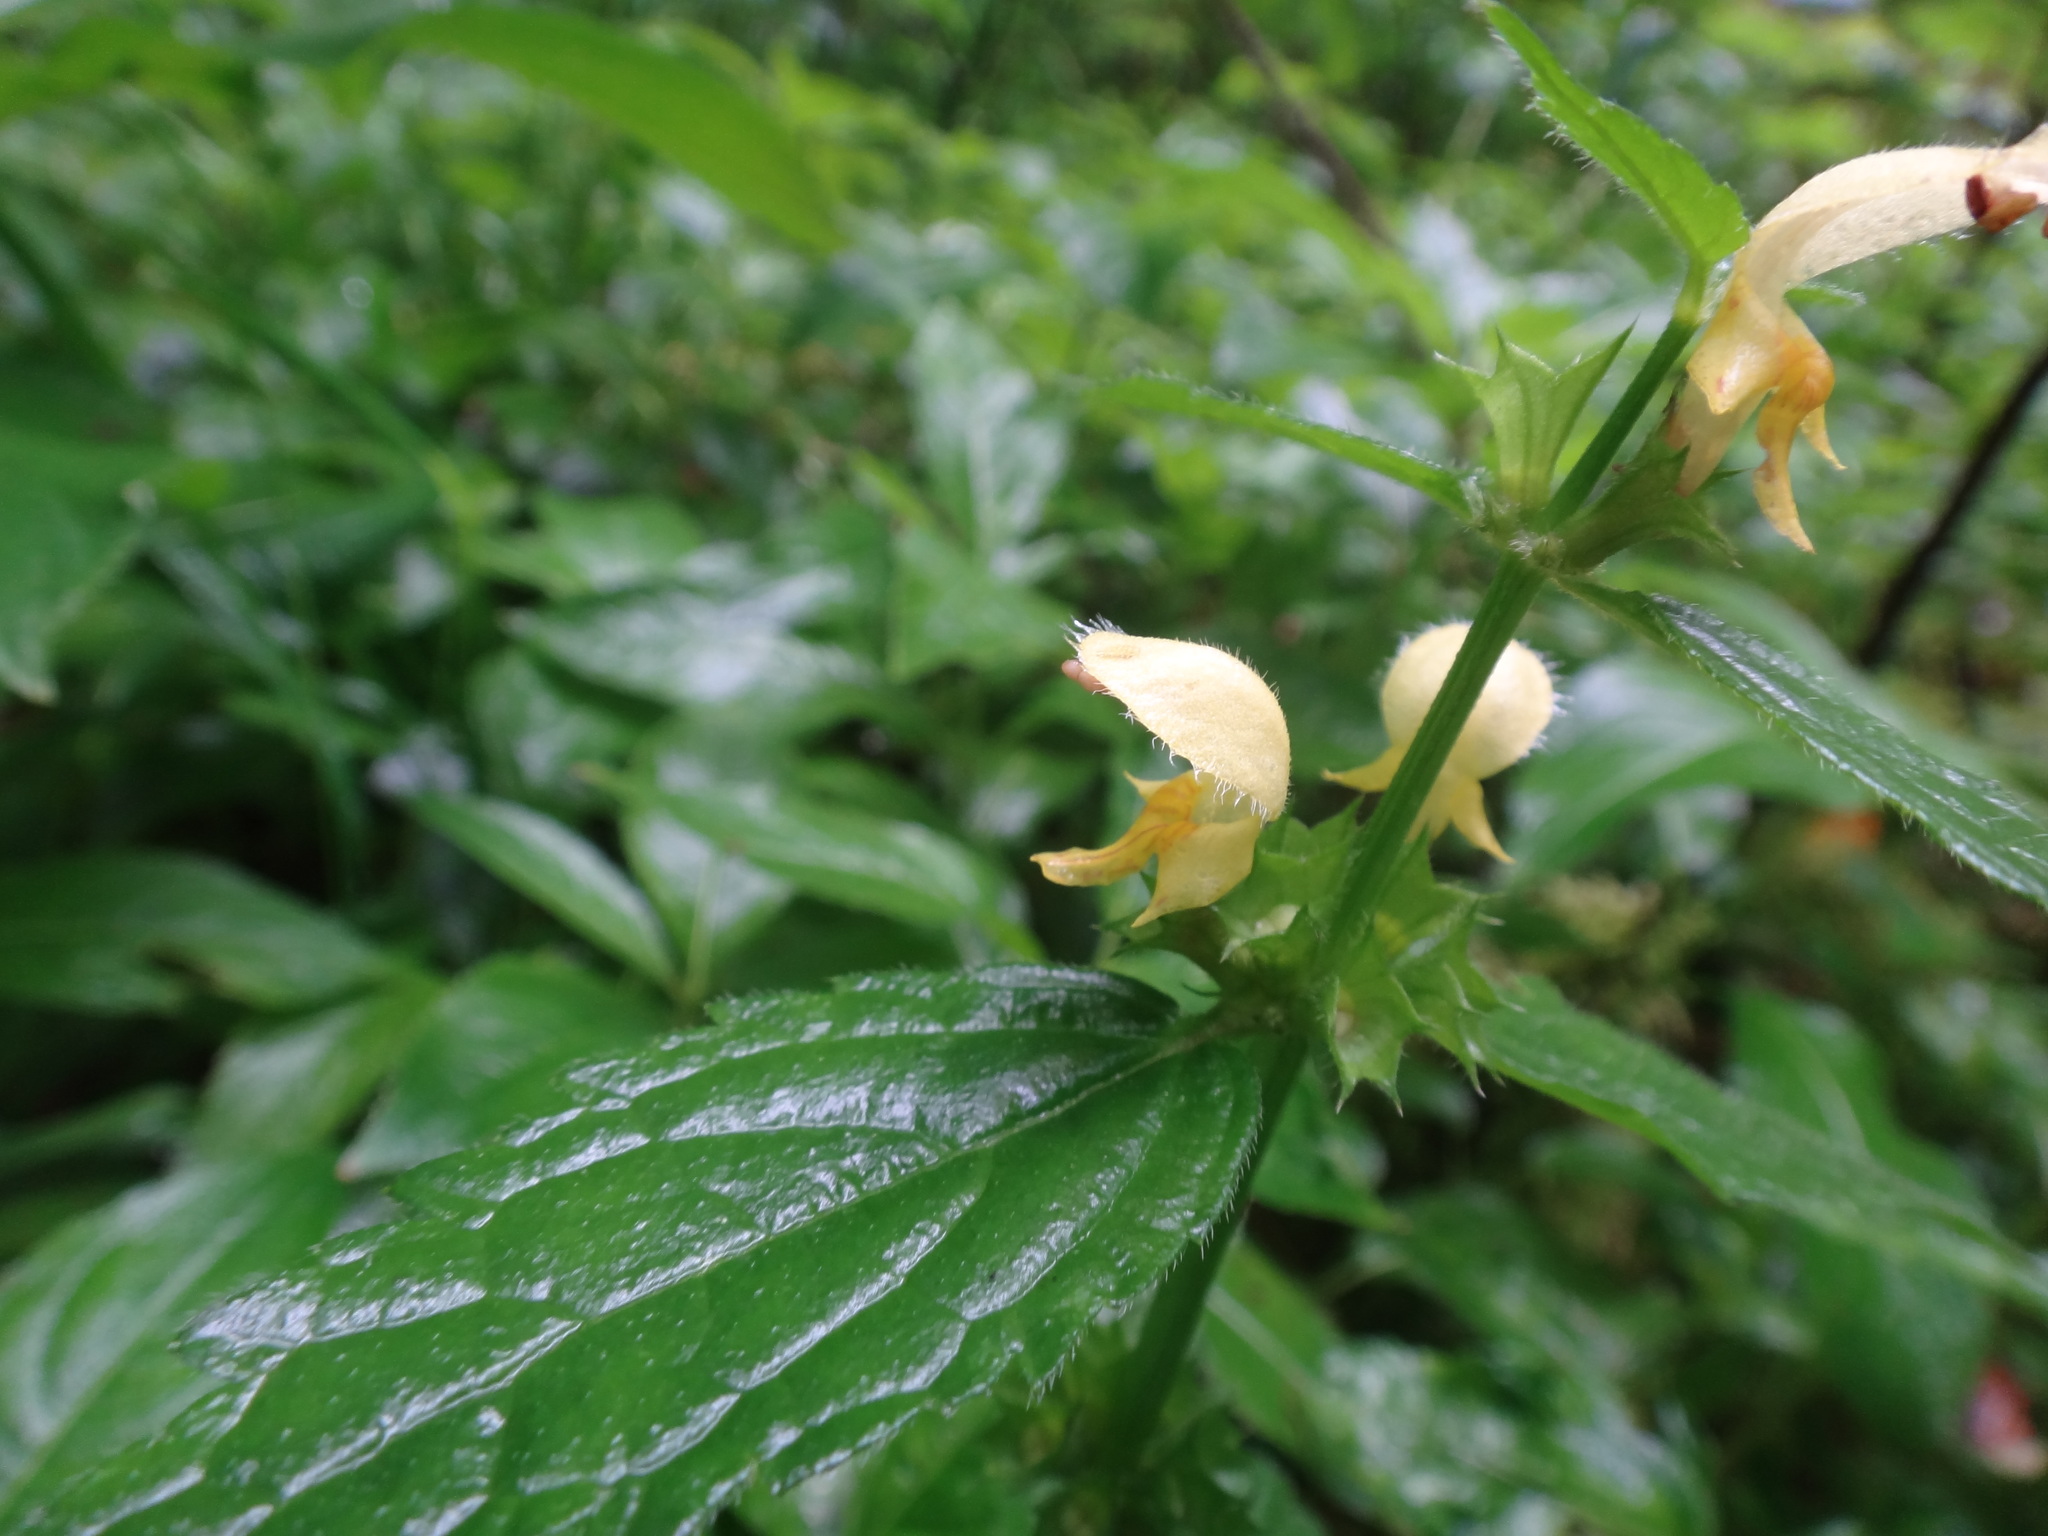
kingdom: Plantae
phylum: Tracheophyta
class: Magnoliopsida
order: Lamiales
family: Lamiaceae
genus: Lamium
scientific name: Lamium galeobdolon
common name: Yellow archangel
